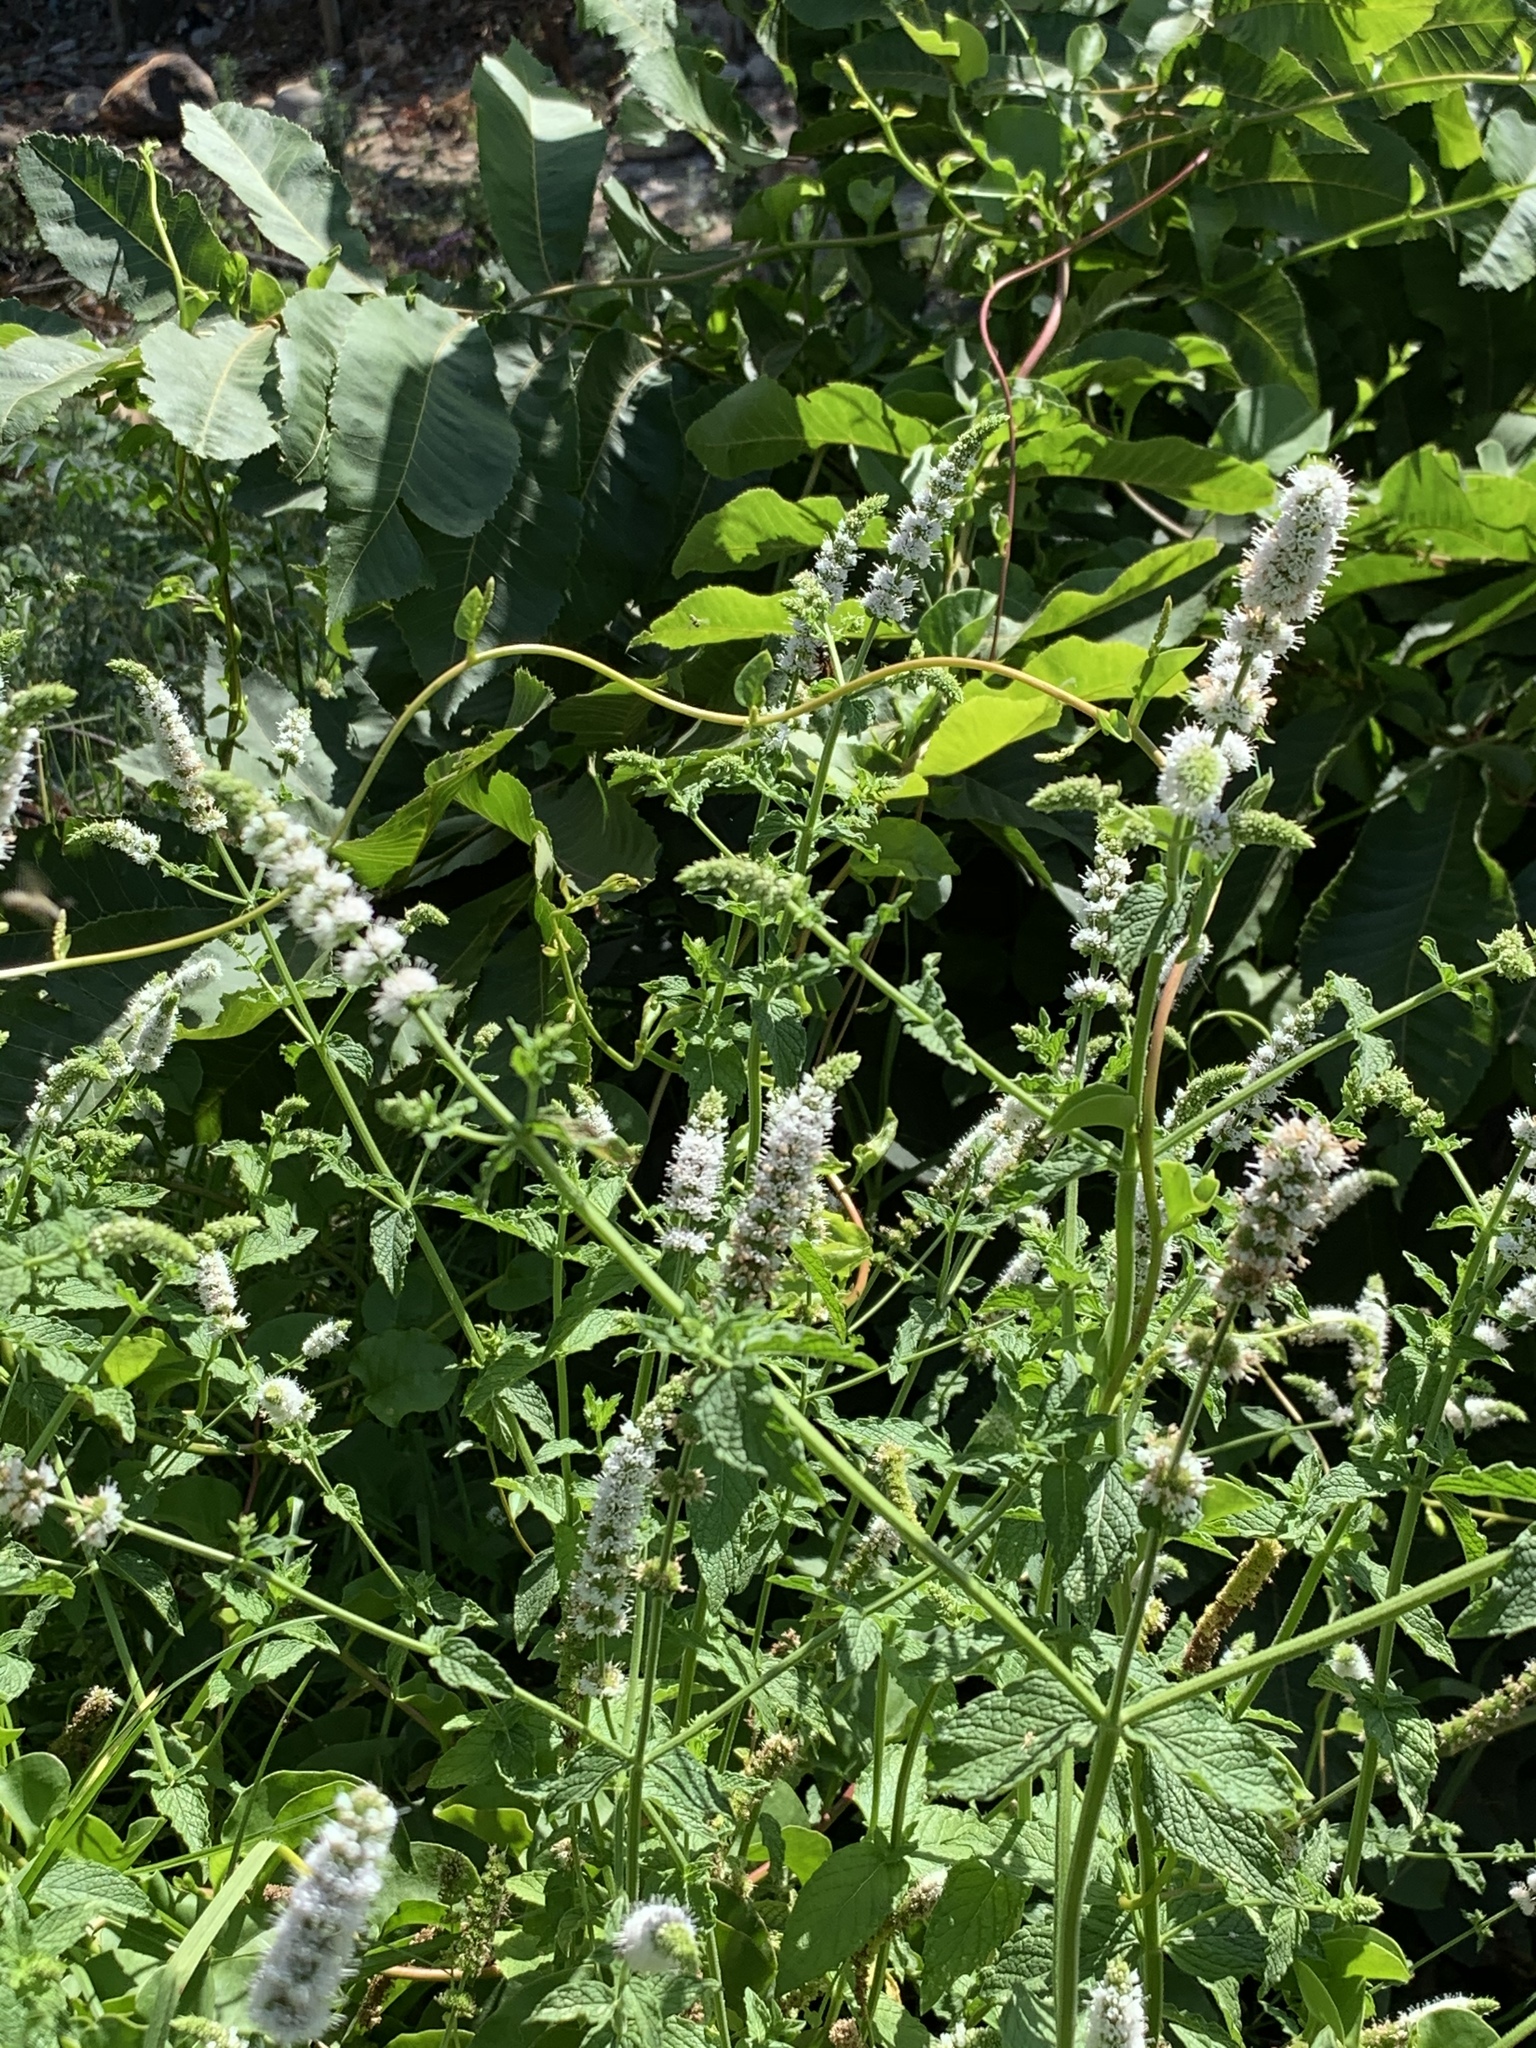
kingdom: Plantae
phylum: Tracheophyta
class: Magnoliopsida
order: Lamiales
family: Lamiaceae
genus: Mentha
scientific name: Mentha longifolia
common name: Horse mint
